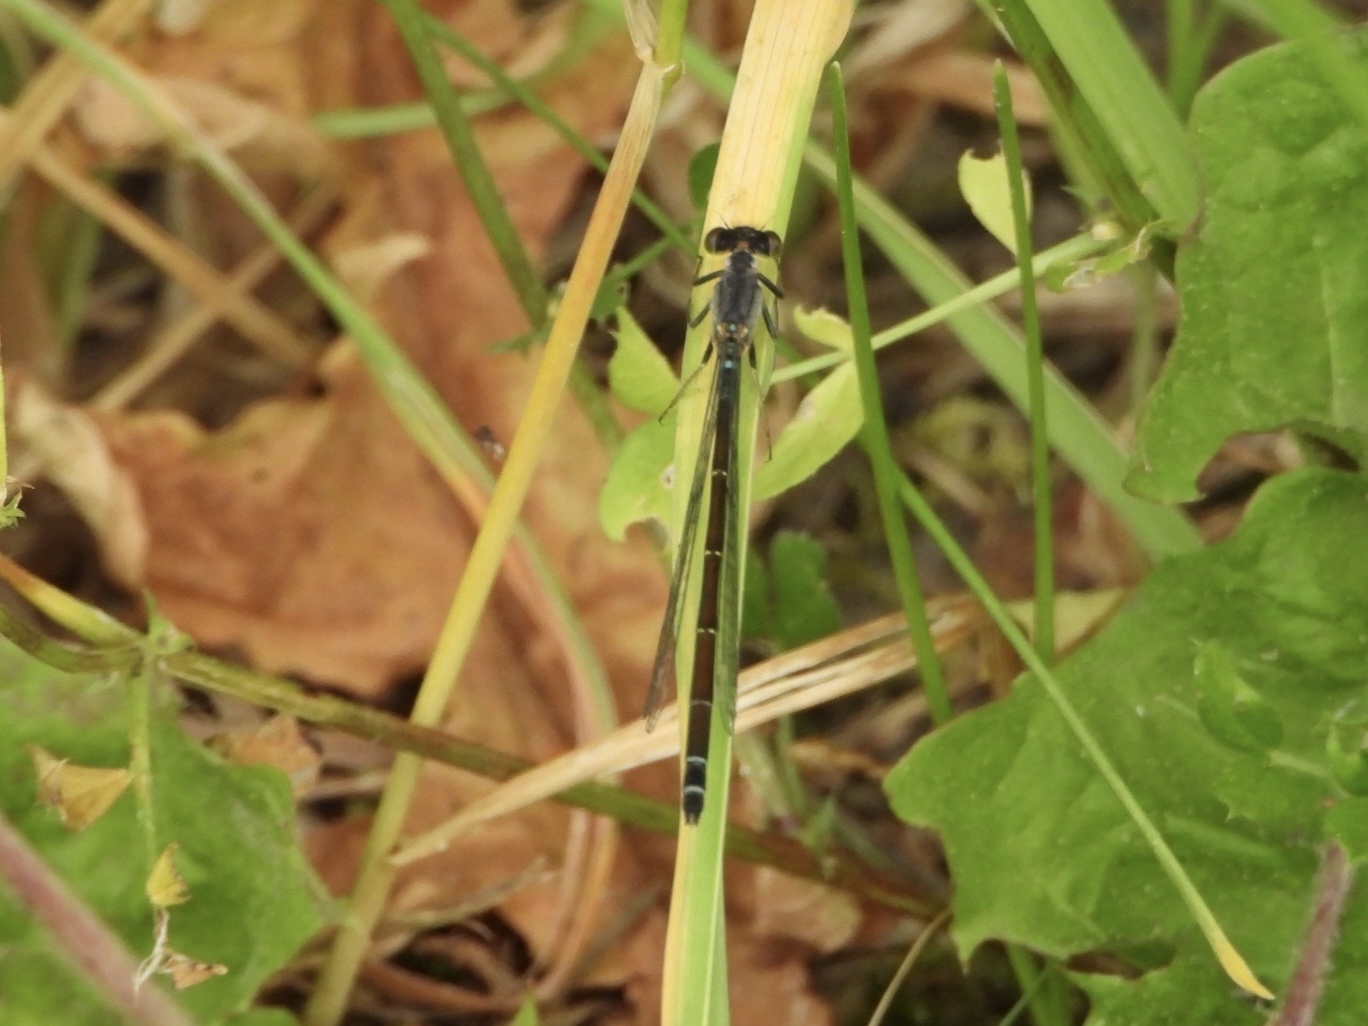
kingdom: Animalia
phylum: Arthropoda
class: Insecta
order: Odonata
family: Coenagrionidae
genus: Ischnura
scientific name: Ischnura cervula
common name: Pacific forktail
